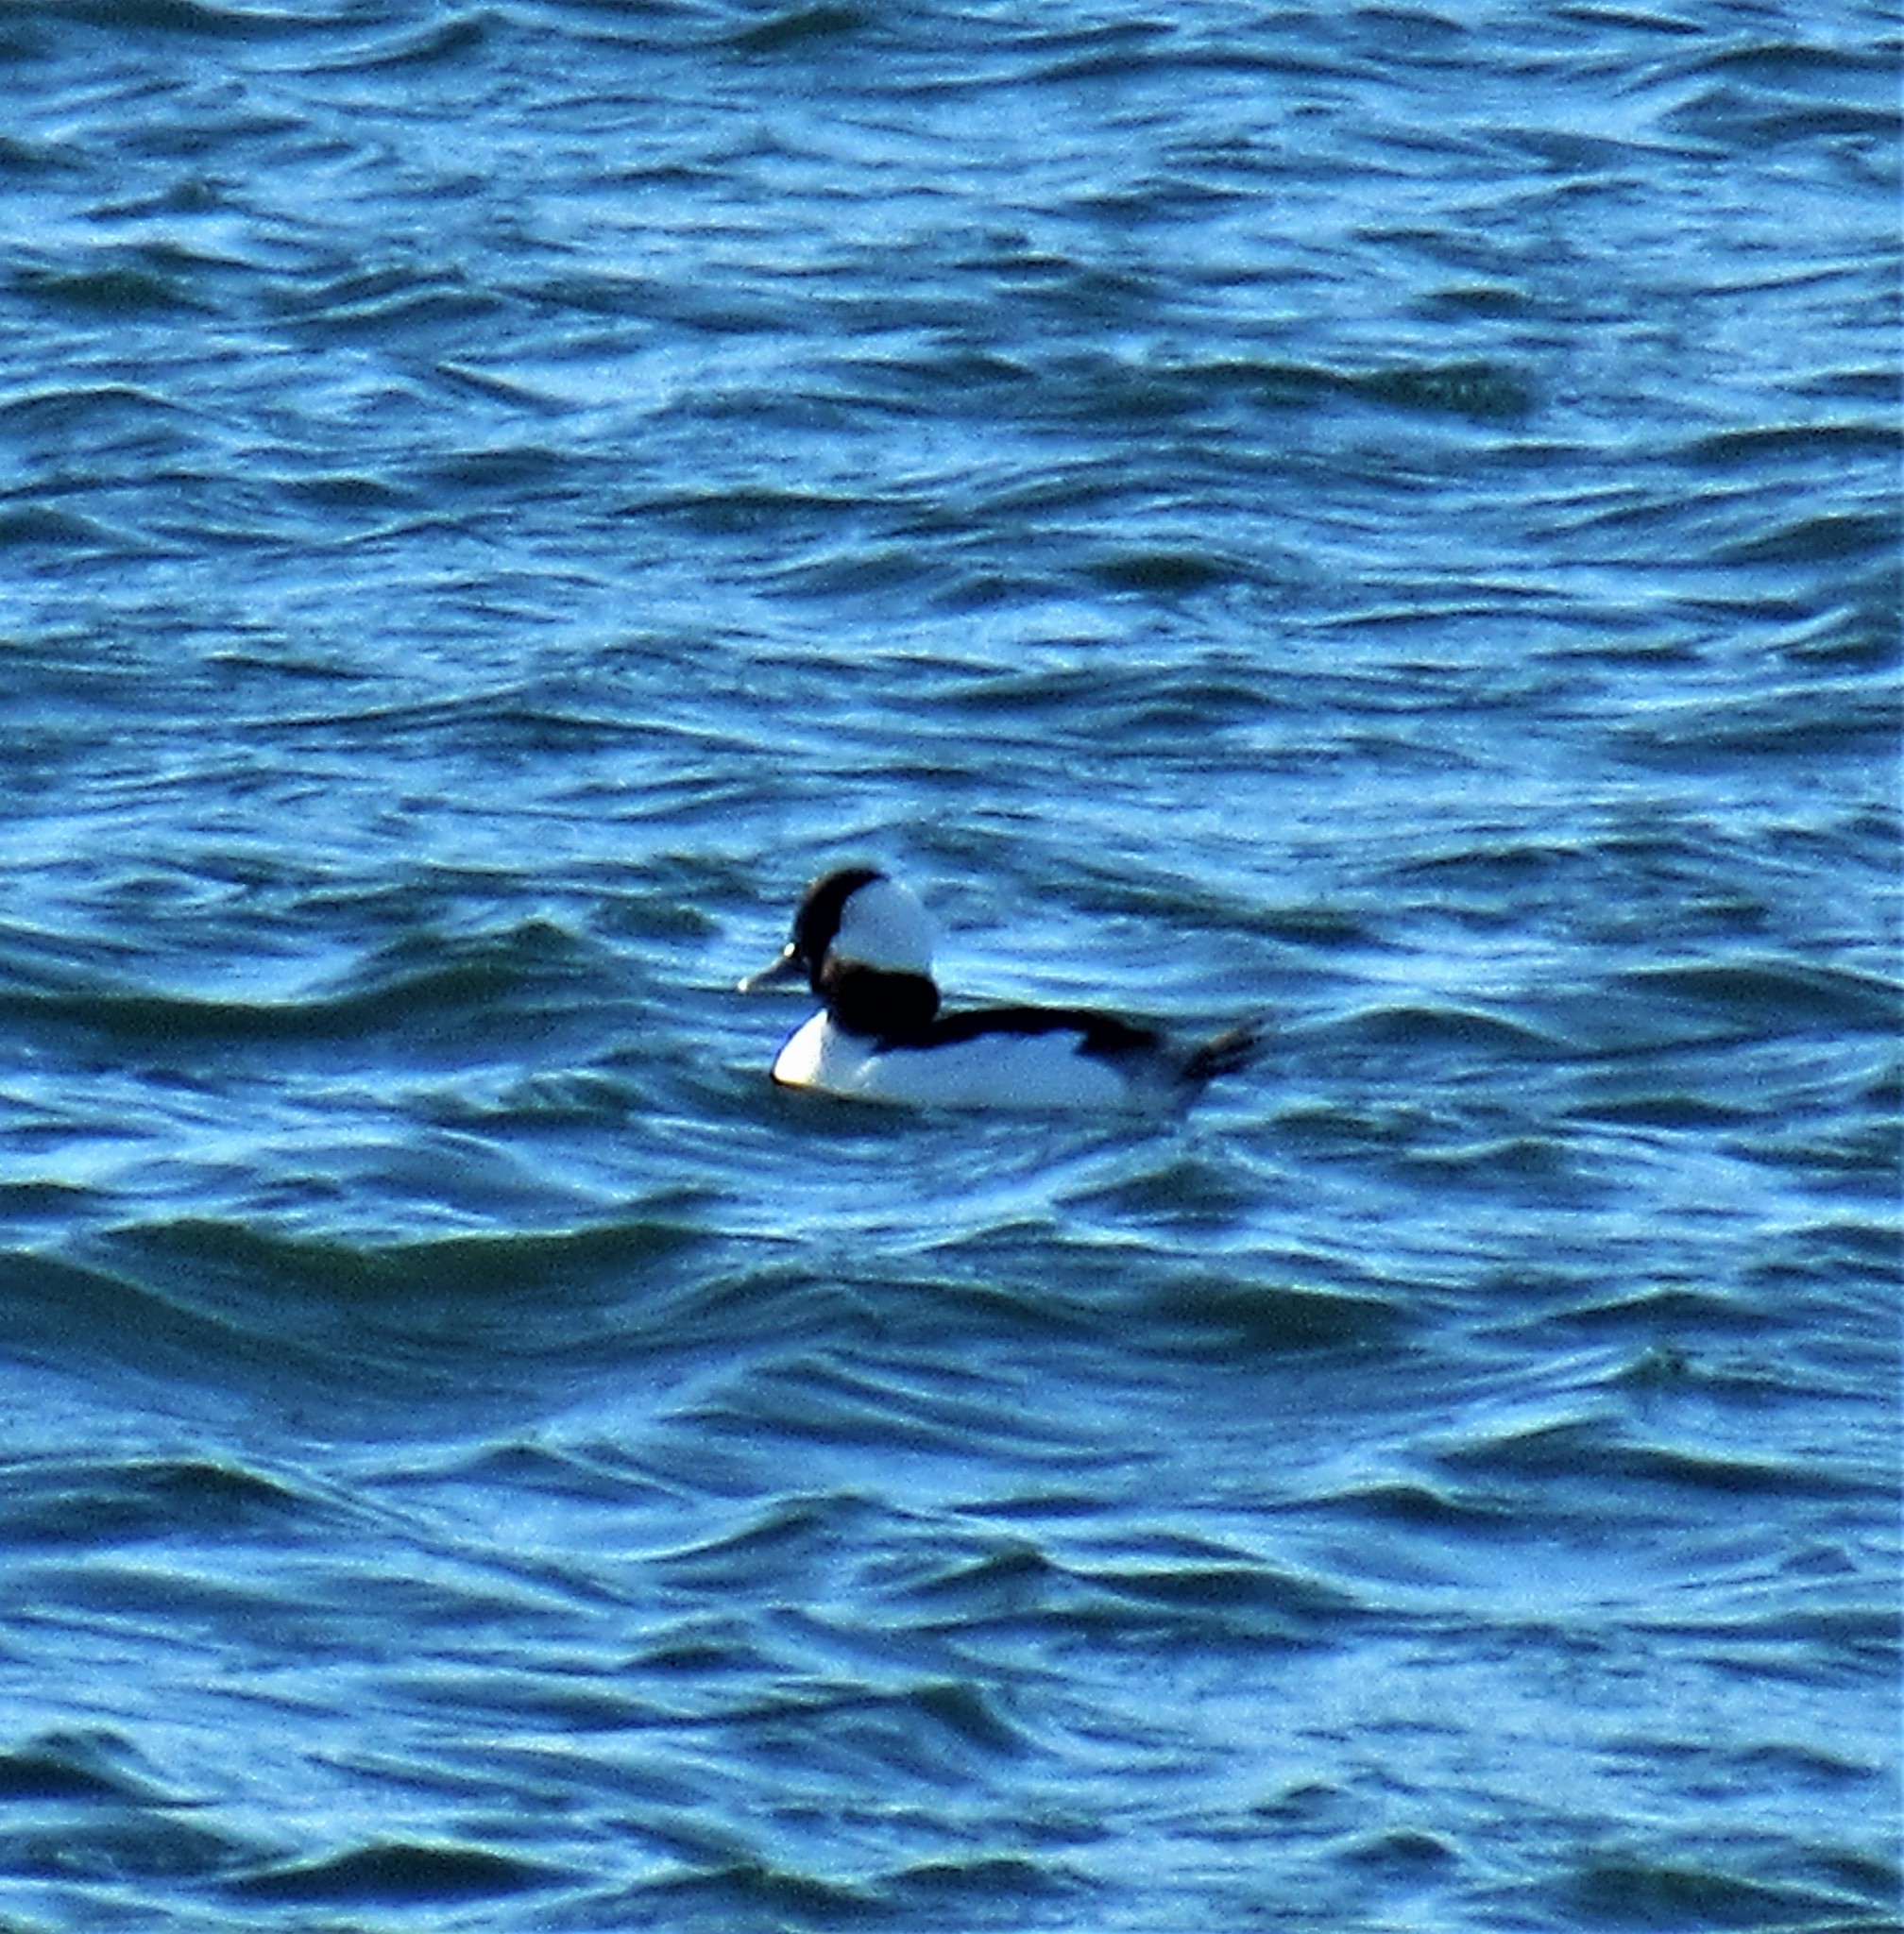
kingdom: Animalia
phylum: Chordata
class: Aves
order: Anseriformes
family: Anatidae
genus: Bucephala
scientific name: Bucephala albeola
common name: Bufflehead
